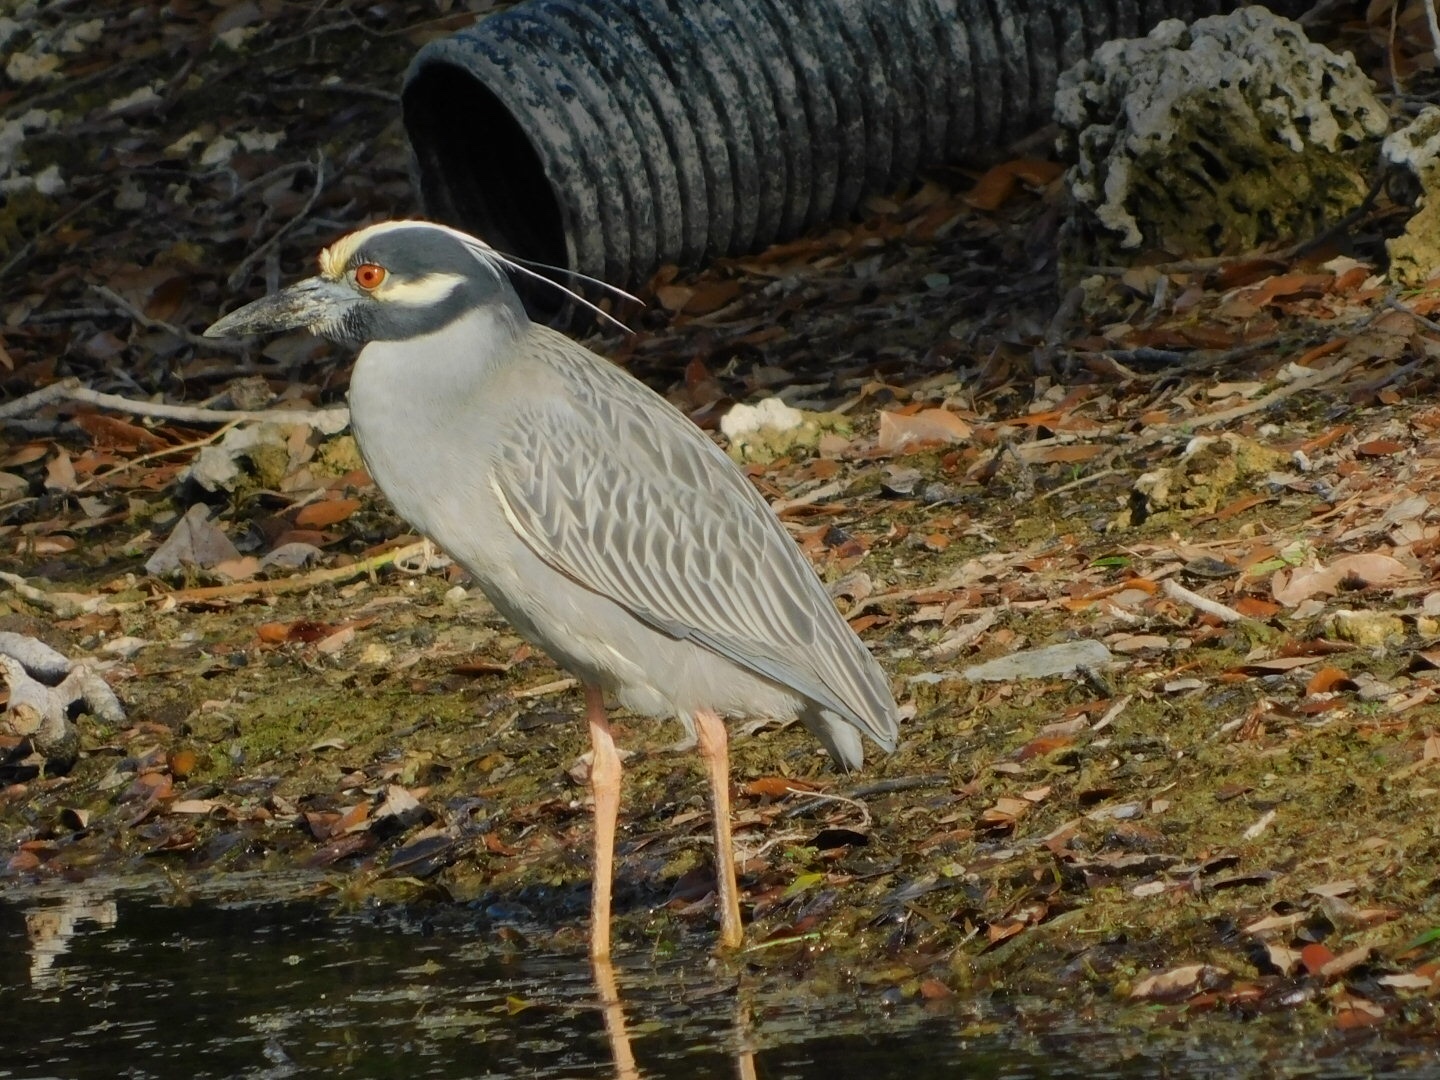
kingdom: Animalia
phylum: Chordata
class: Aves
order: Pelecaniformes
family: Ardeidae
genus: Nyctanassa
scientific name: Nyctanassa violacea
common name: Yellow-crowned night heron
